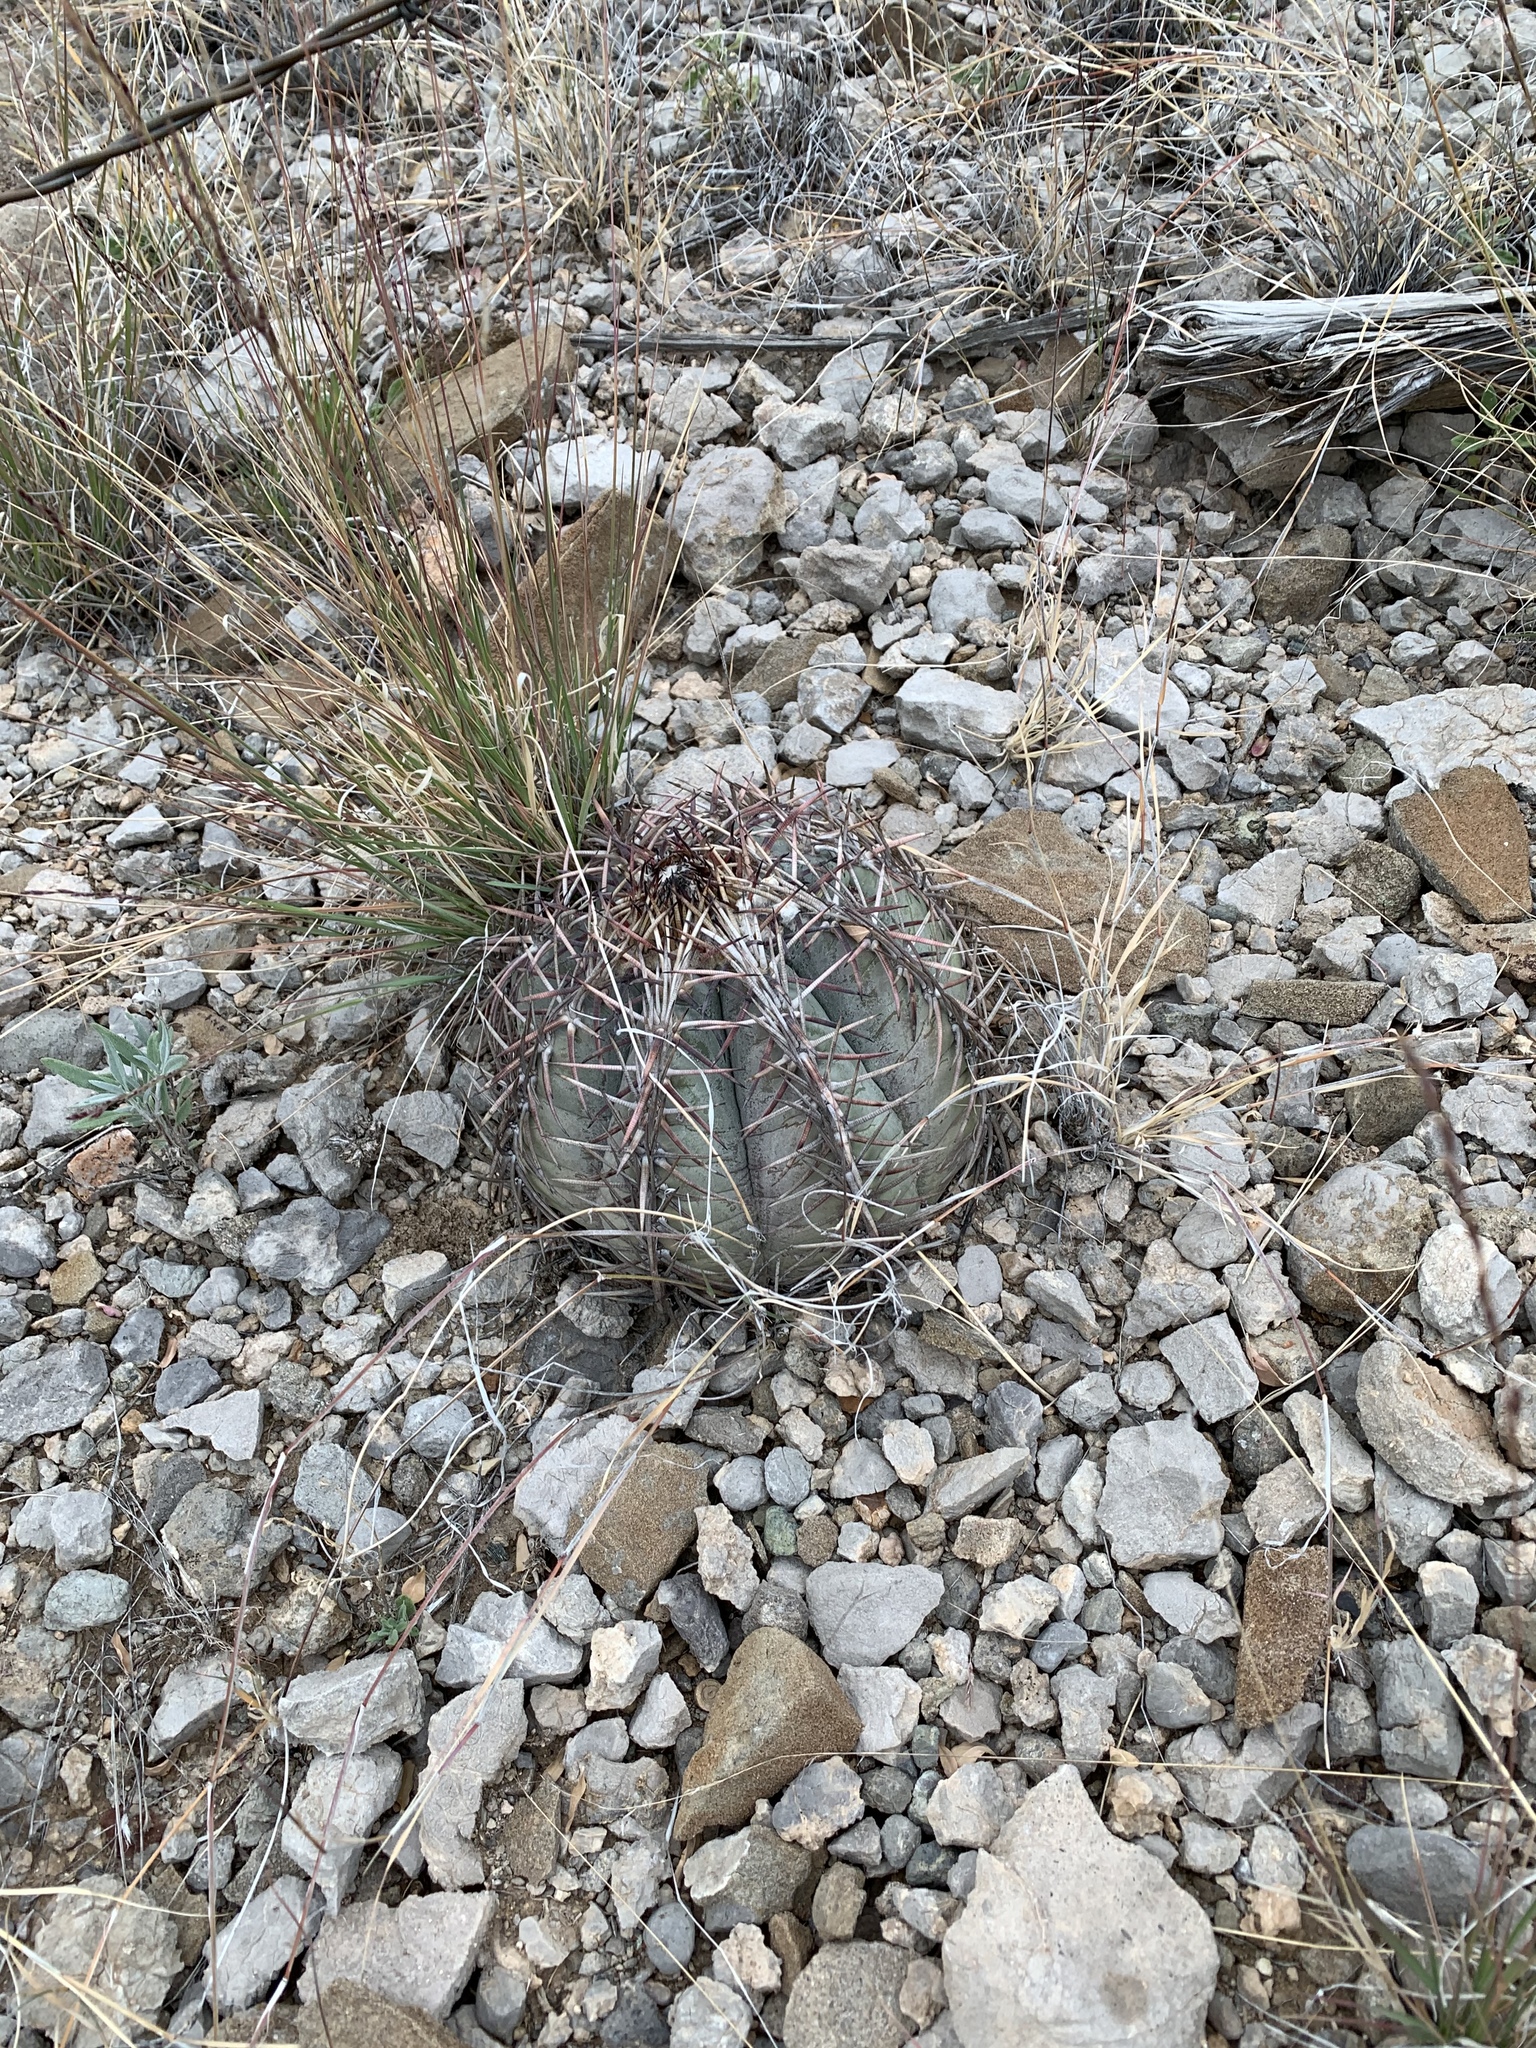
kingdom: Plantae
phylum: Tracheophyta
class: Magnoliopsida
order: Caryophyllales
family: Cactaceae
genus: Echinocactus
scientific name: Echinocactus horizonthalonius
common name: Devilshead
